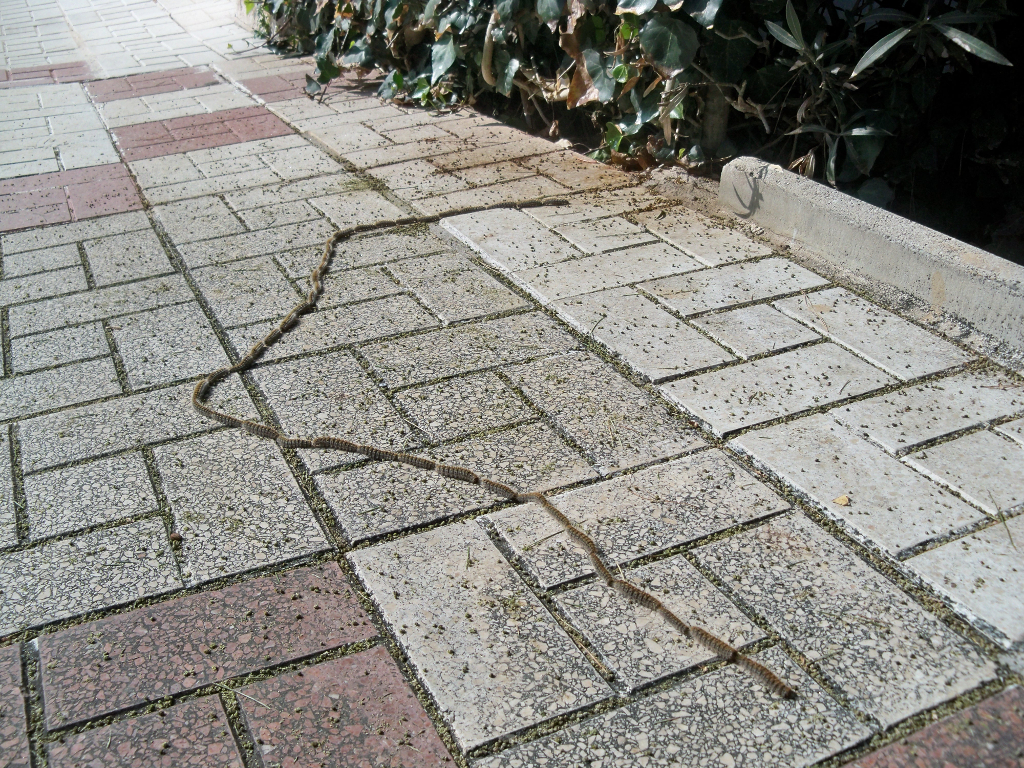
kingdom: Animalia
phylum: Arthropoda
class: Insecta
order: Lepidoptera
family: Notodontidae
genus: Thaumetopoea
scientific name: Thaumetopoea pityocampa
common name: Pine processionary
